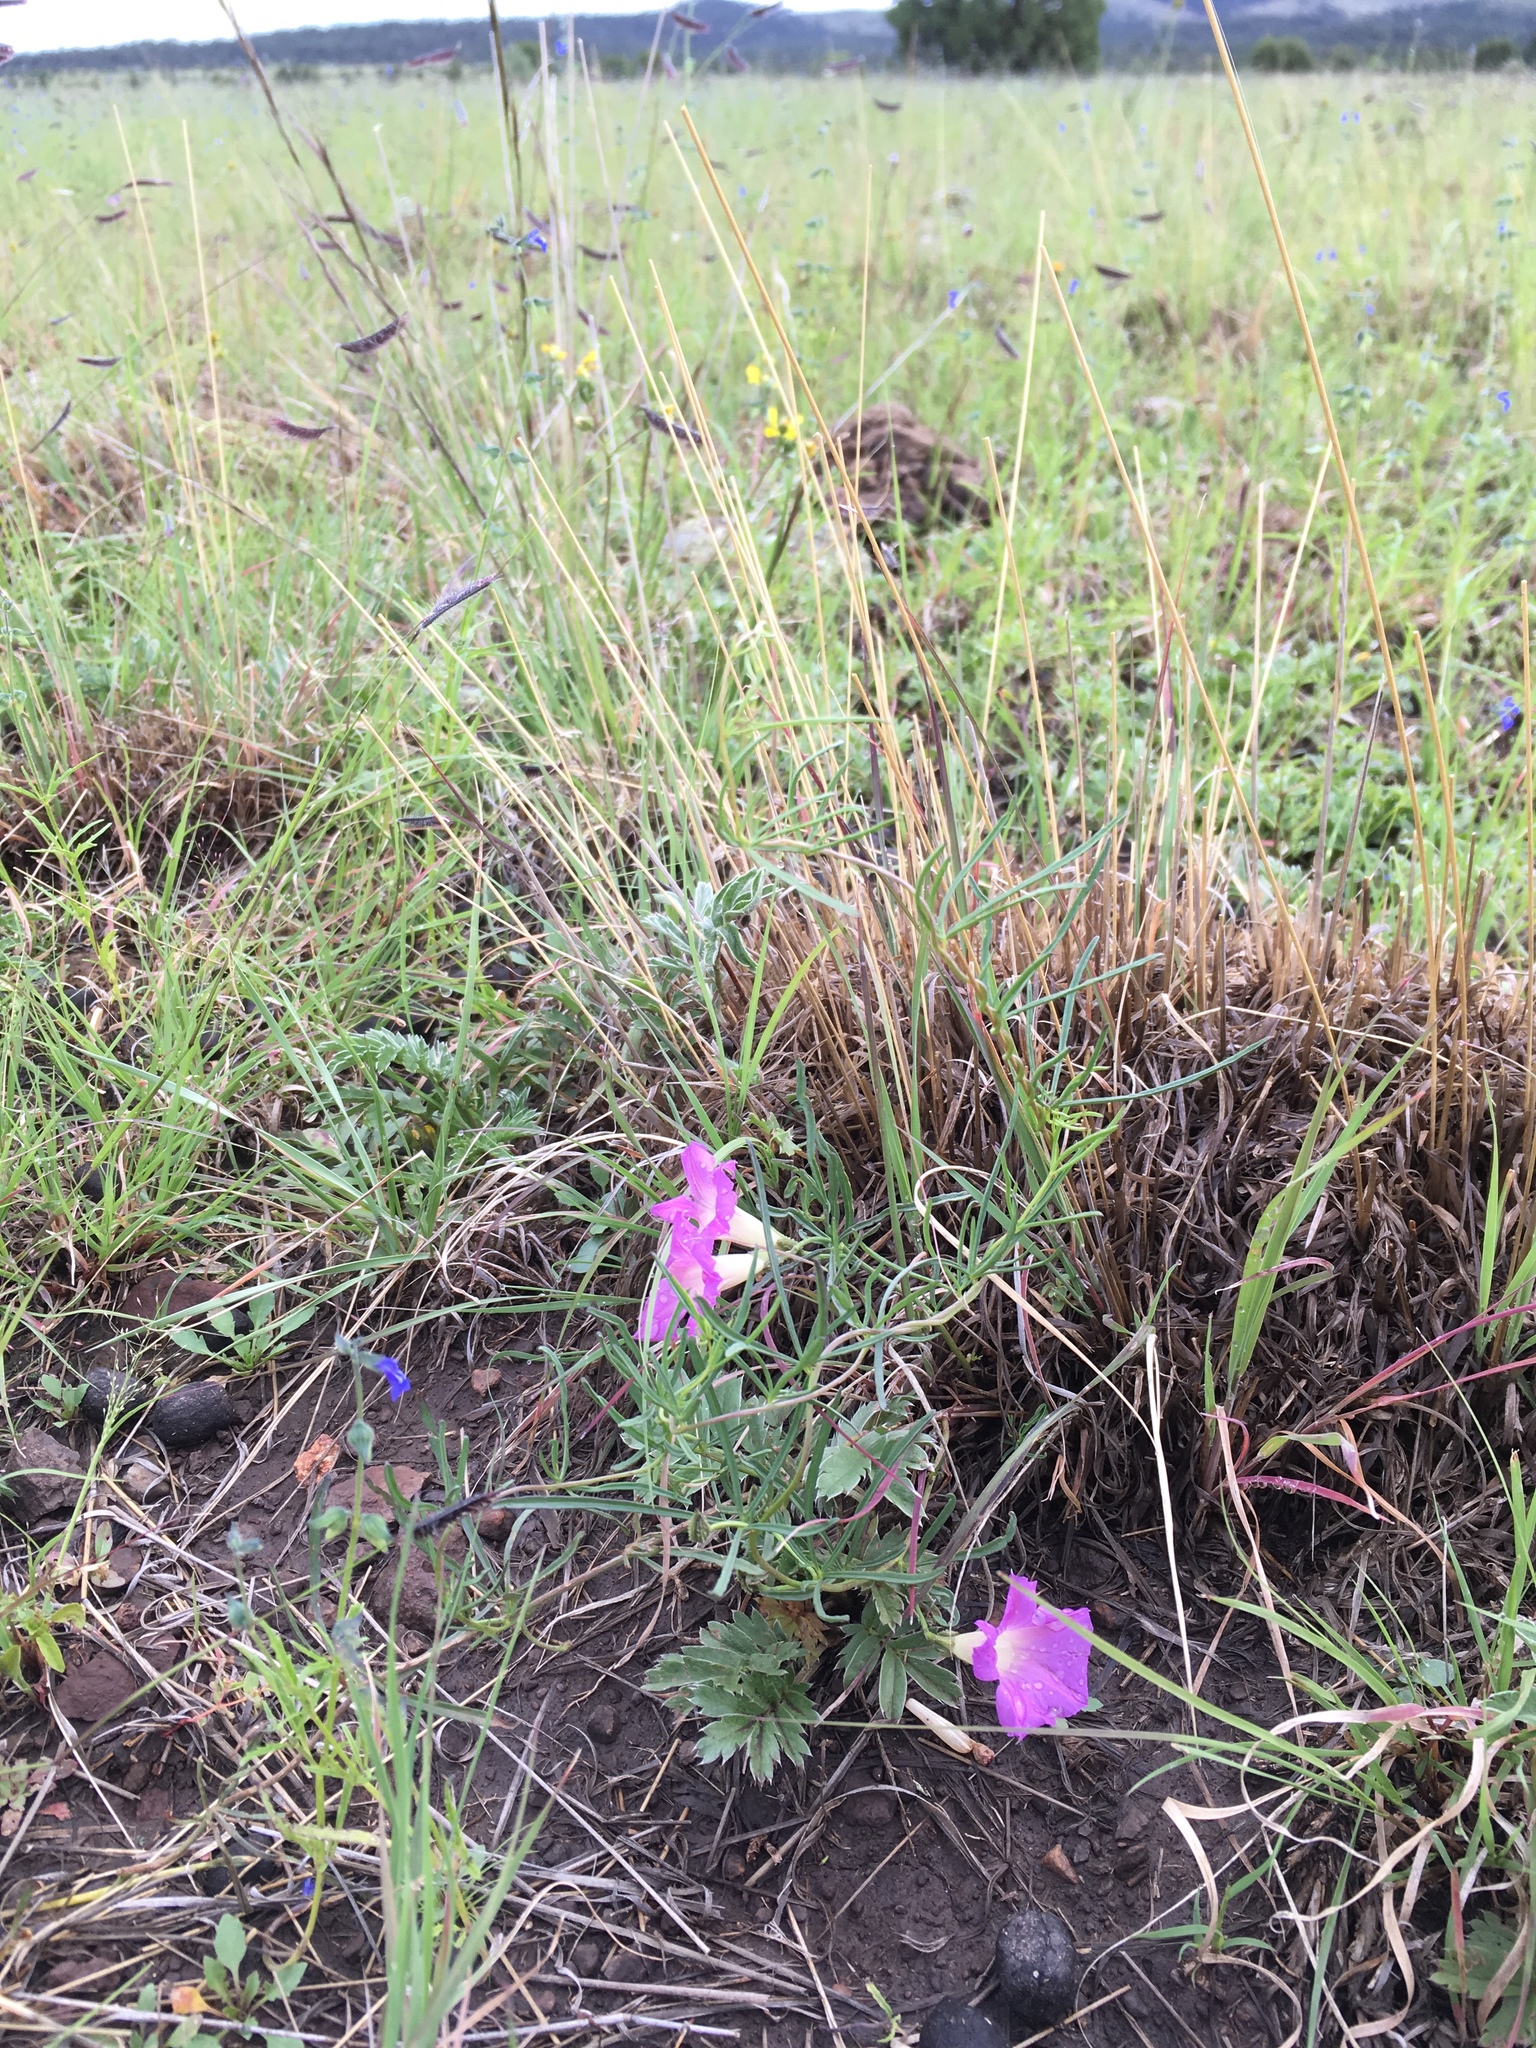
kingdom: Plantae
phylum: Tracheophyta
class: Magnoliopsida
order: Solanales
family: Convolvulaceae
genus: Ipomoea
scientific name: Ipomoea plummerae
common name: Plummer's morning-glory
